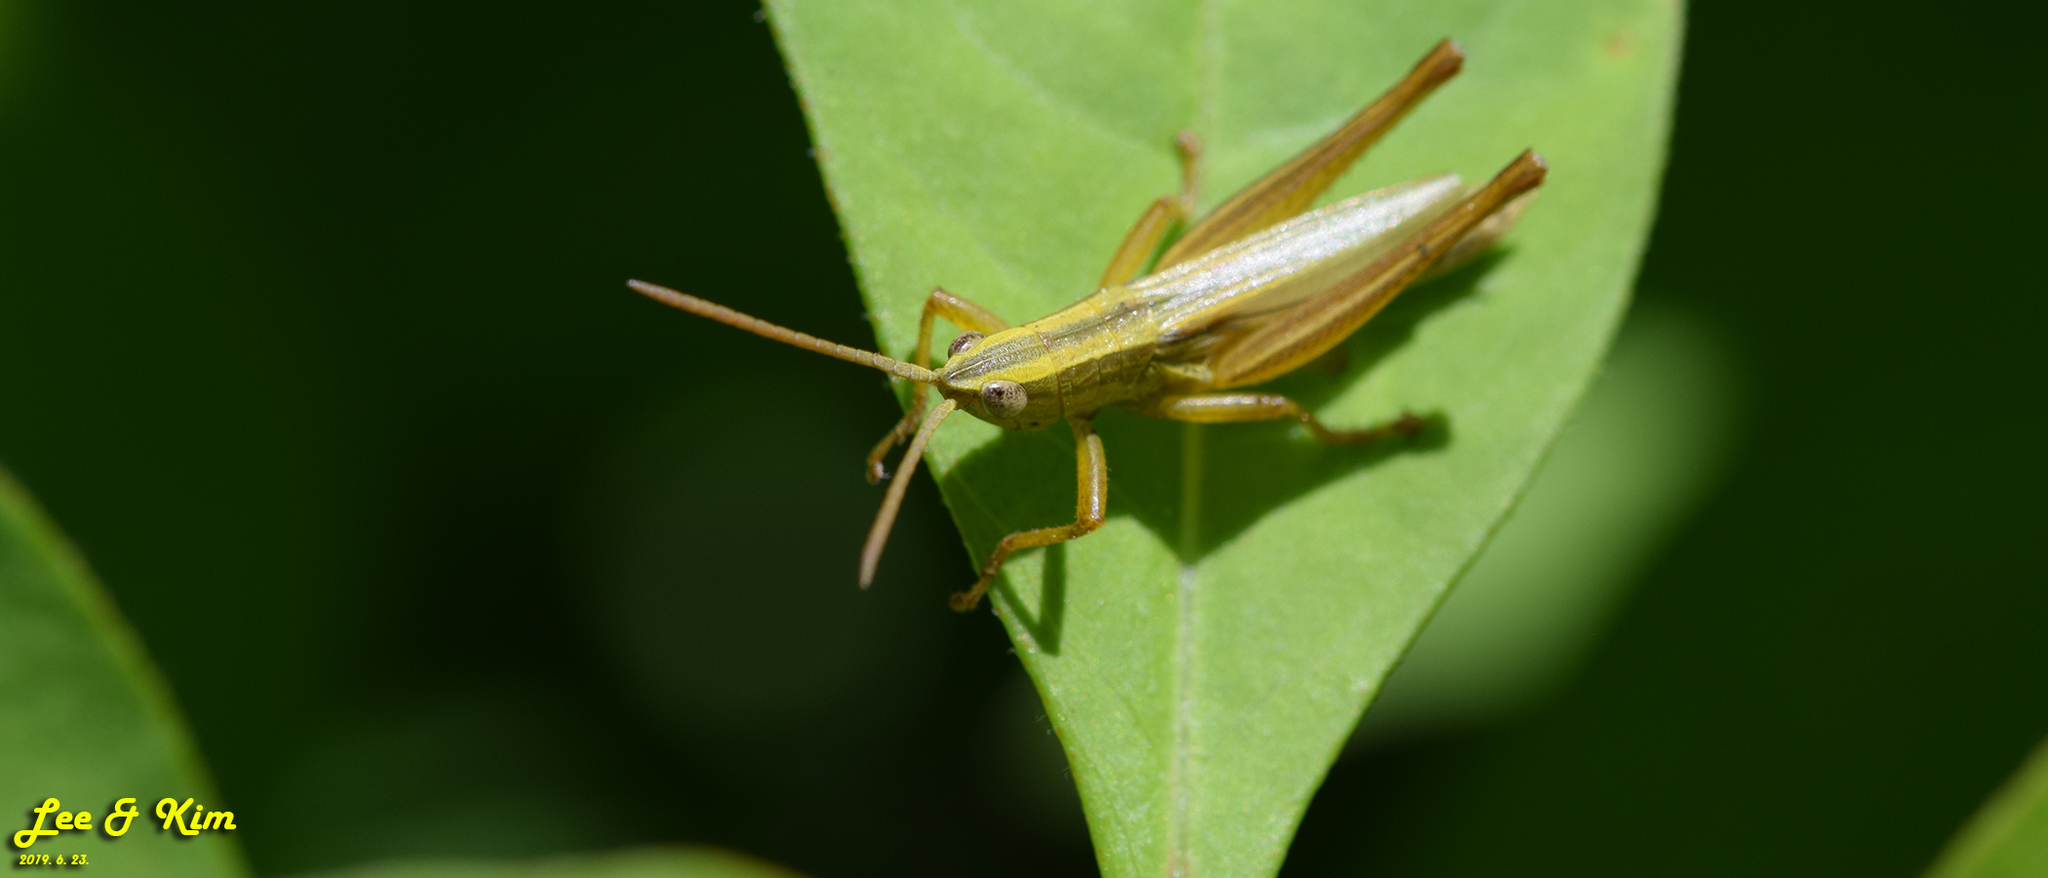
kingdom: Animalia
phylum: Arthropoda
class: Insecta
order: Orthoptera
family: Acrididae
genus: Mongolotettix
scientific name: Mongolotettix japonicus
